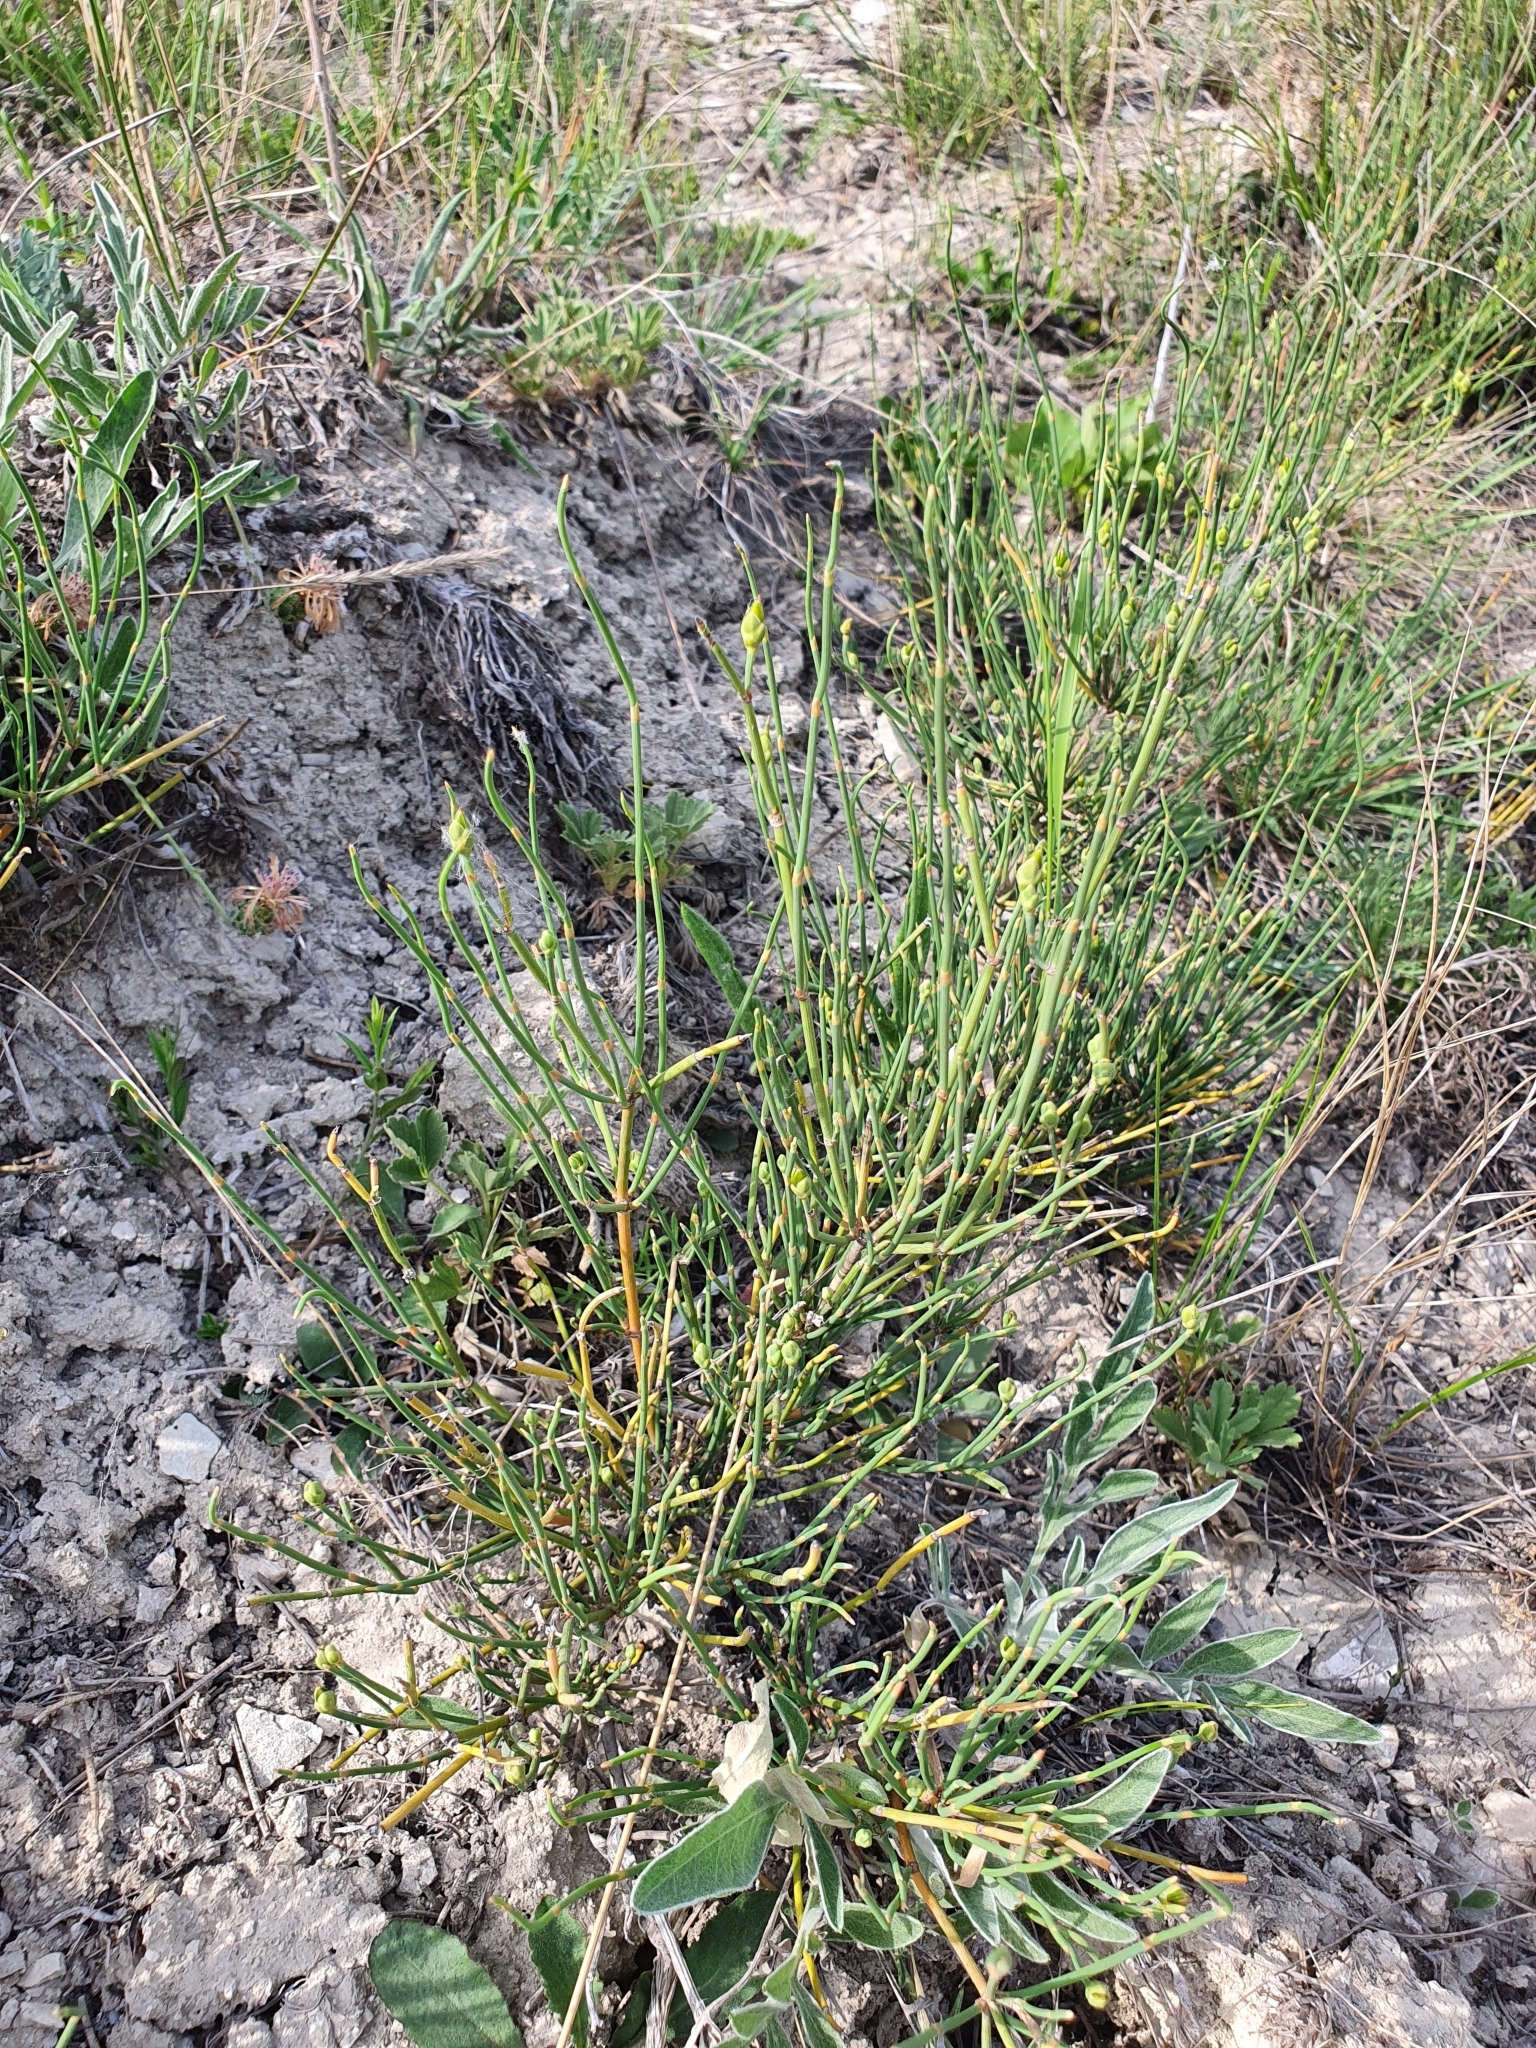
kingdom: Plantae
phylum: Tracheophyta
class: Gnetopsida
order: Ephedrales
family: Ephedraceae
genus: Ephedra
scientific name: Ephedra distachya
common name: Sea grape
